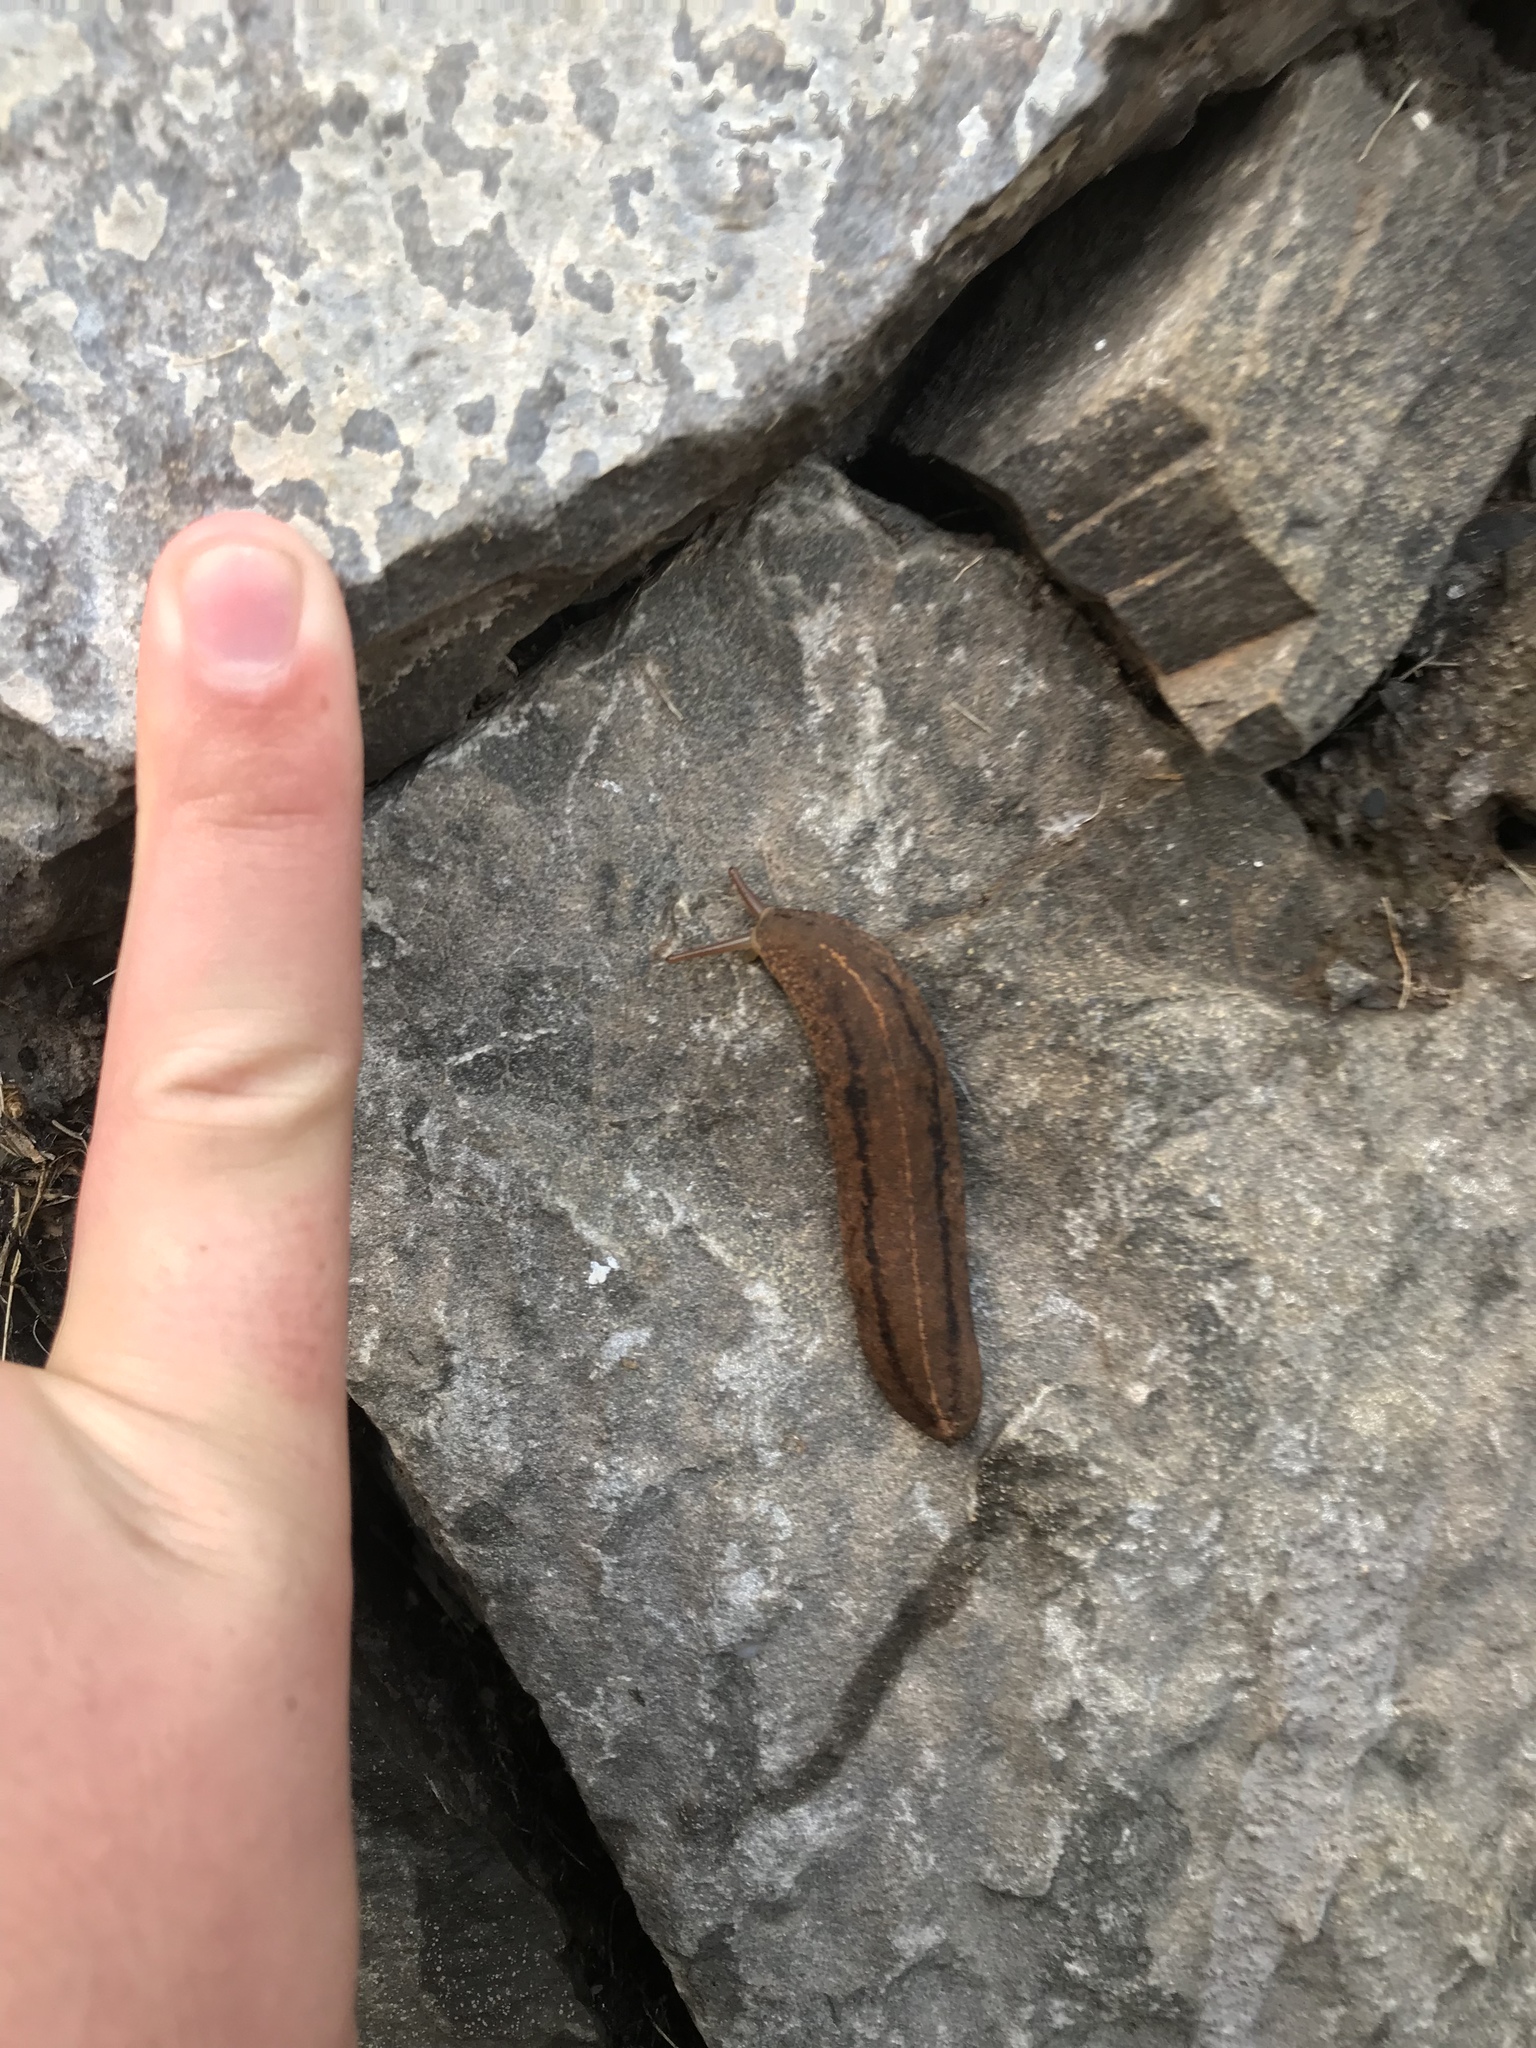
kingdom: Animalia
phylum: Mollusca
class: Gastropoda
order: Systellommatophora
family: Veronicellidae
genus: Veronicella
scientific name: Veronicella cubensis
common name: Two striped slug
